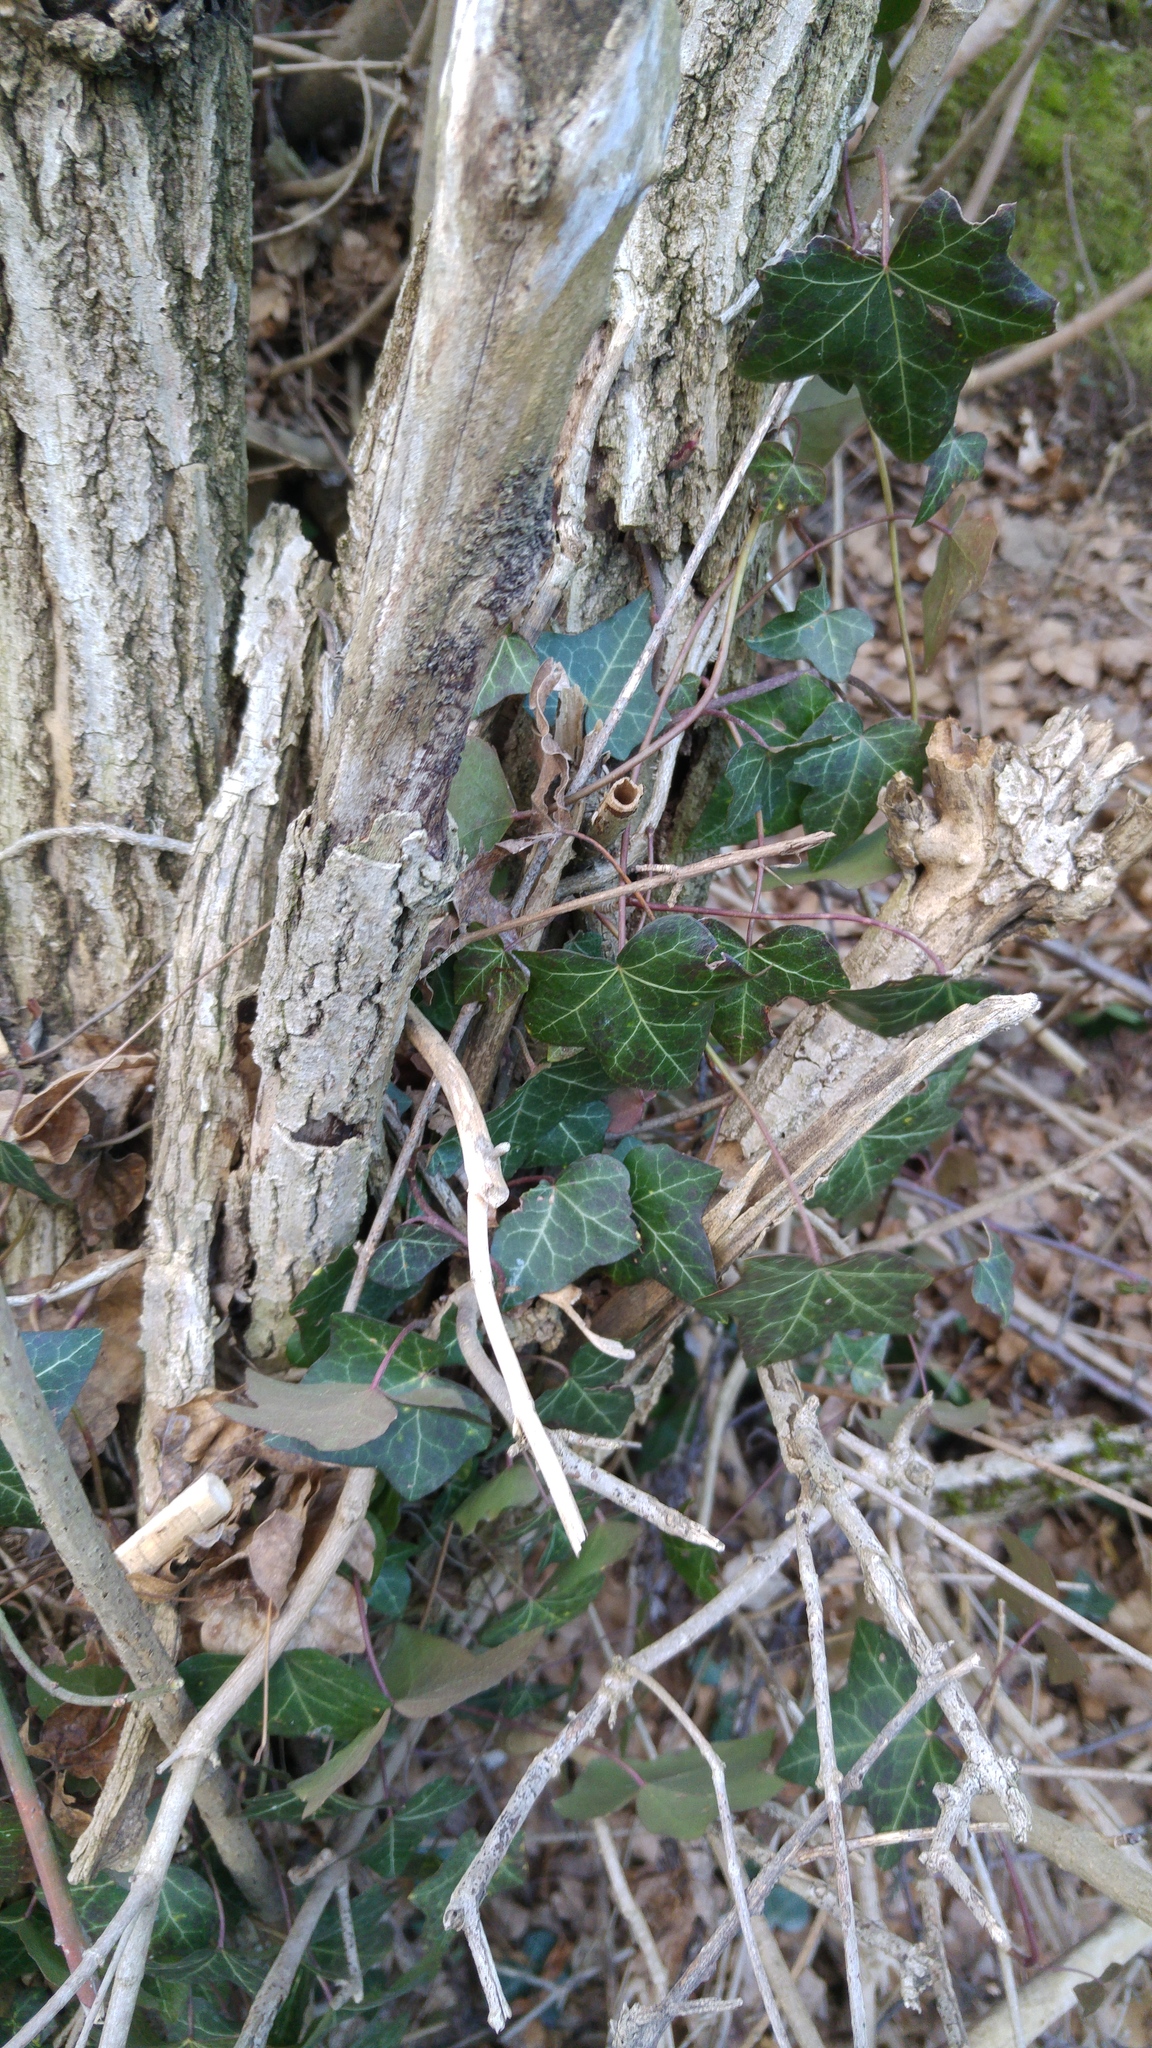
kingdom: Plantae
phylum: Tracheophyta
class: Magnoliopsida
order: Apiales
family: Araliaceae
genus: Hedera
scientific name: Hedera helix
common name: Ivy
